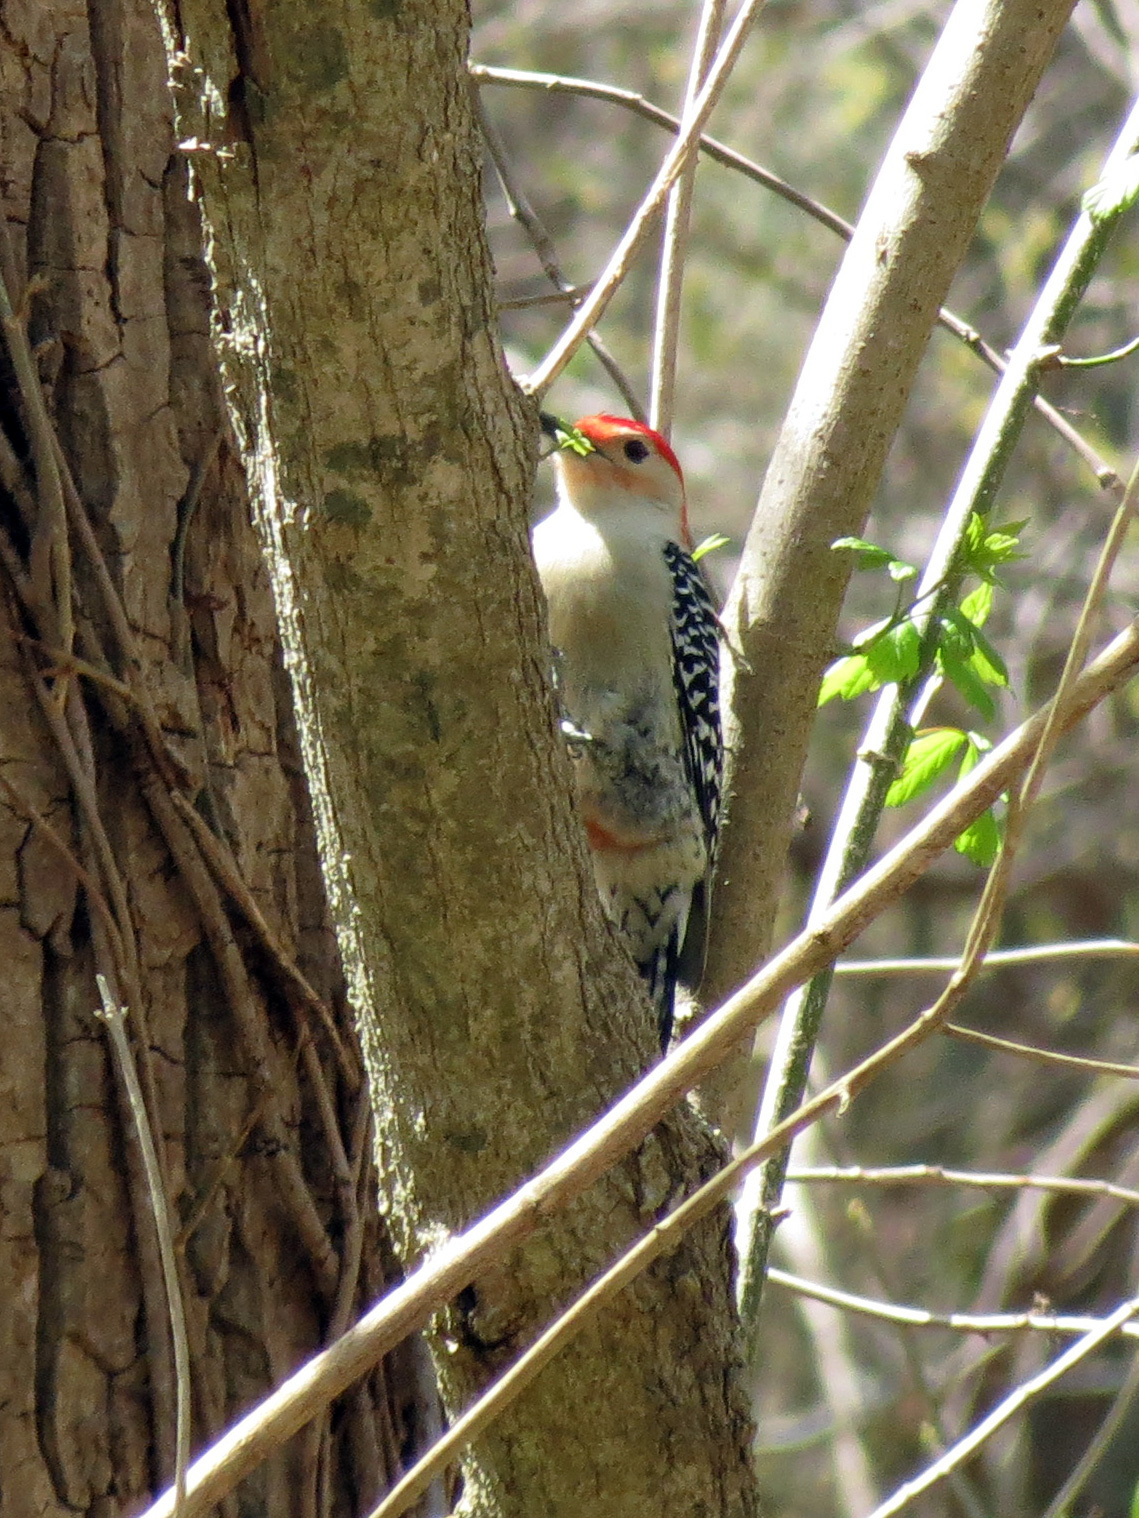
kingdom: Animalia
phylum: Chordata
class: Aves
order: Piciformes
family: Picidae
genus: Melanerpes
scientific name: Melanerpes carolinus
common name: Red-bellied woodpecker
